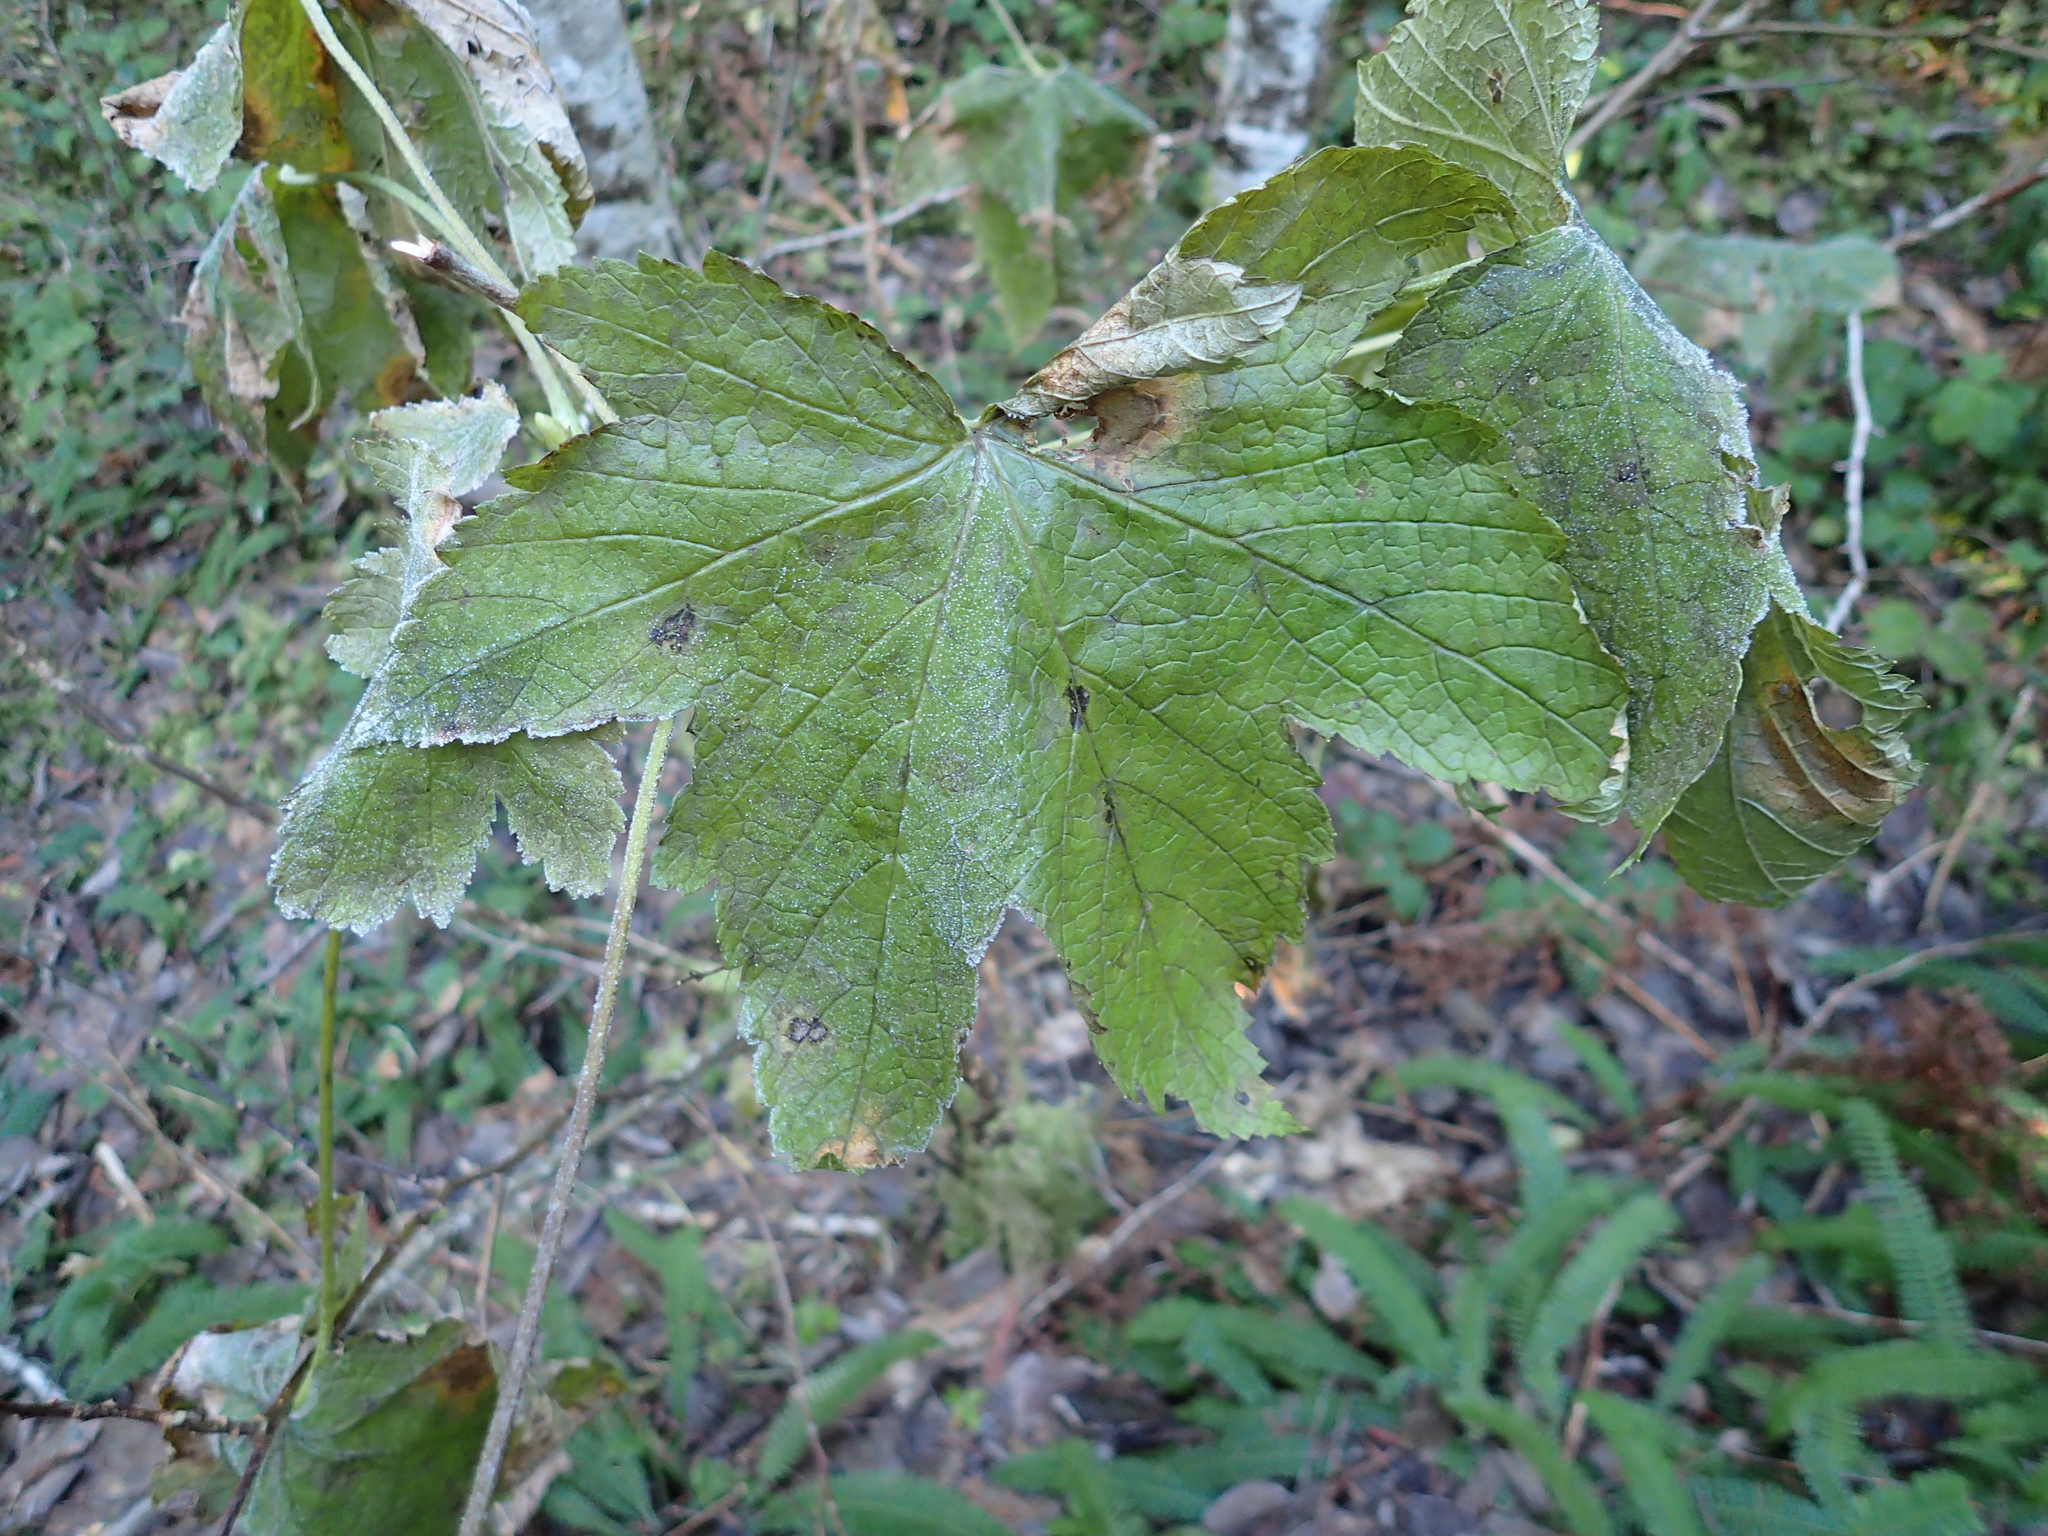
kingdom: Plantae
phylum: Tracheophyta
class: Magnoliopsida
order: Saxifragales
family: Grossulariaceae
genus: Ribes
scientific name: Ribes bracteosum
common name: California black currant
